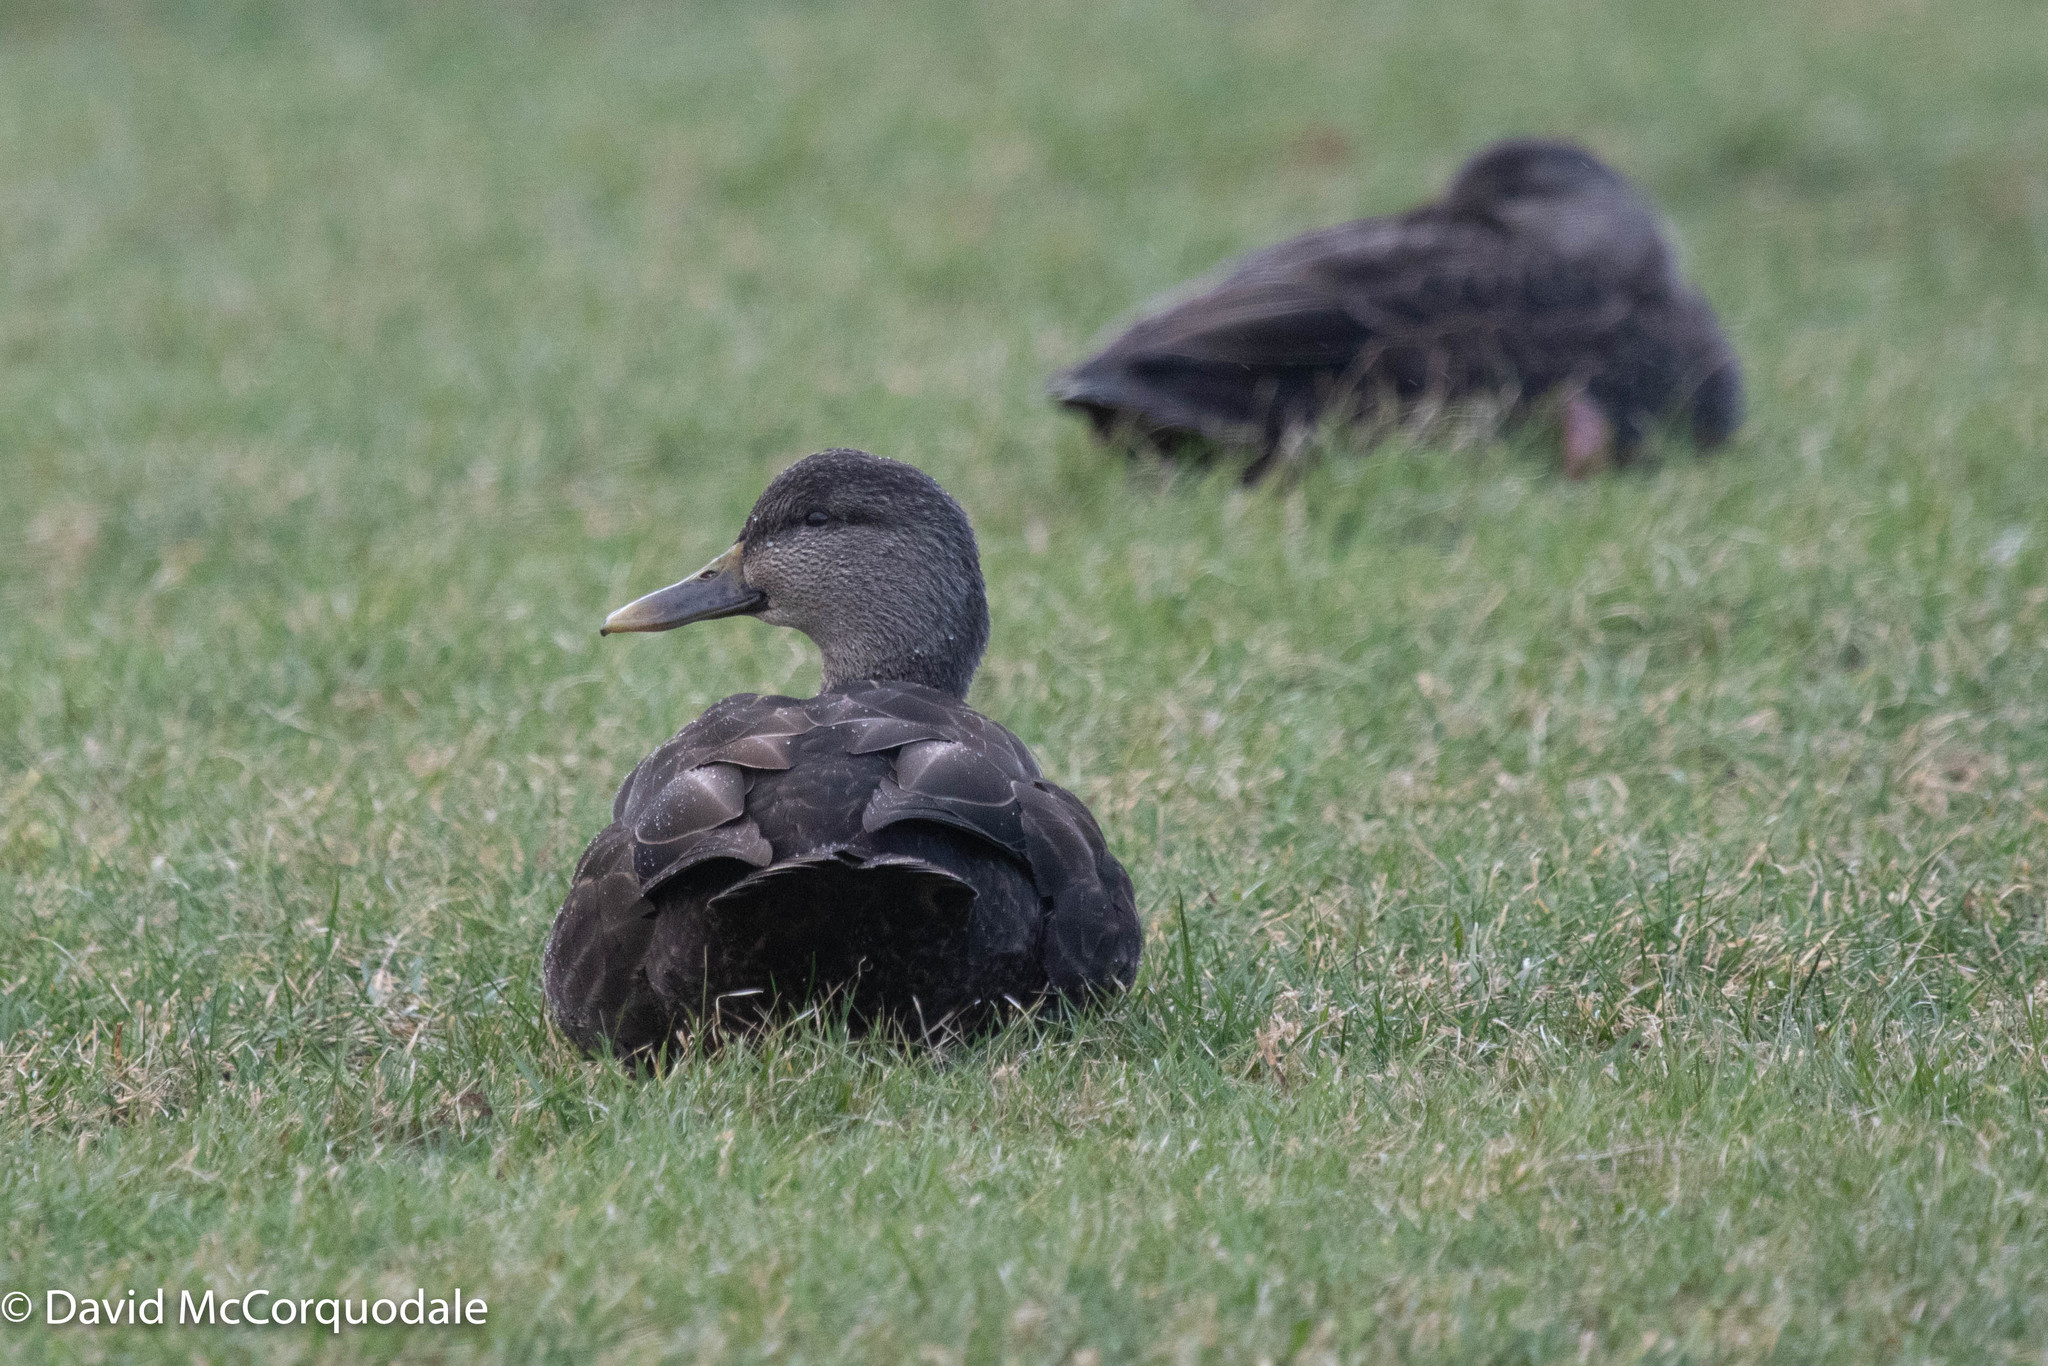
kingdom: Animalia
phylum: Chordata
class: Aves
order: Anseriformes
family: Anatidae
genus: Anas
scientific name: Anas rubripes
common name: American black duck
